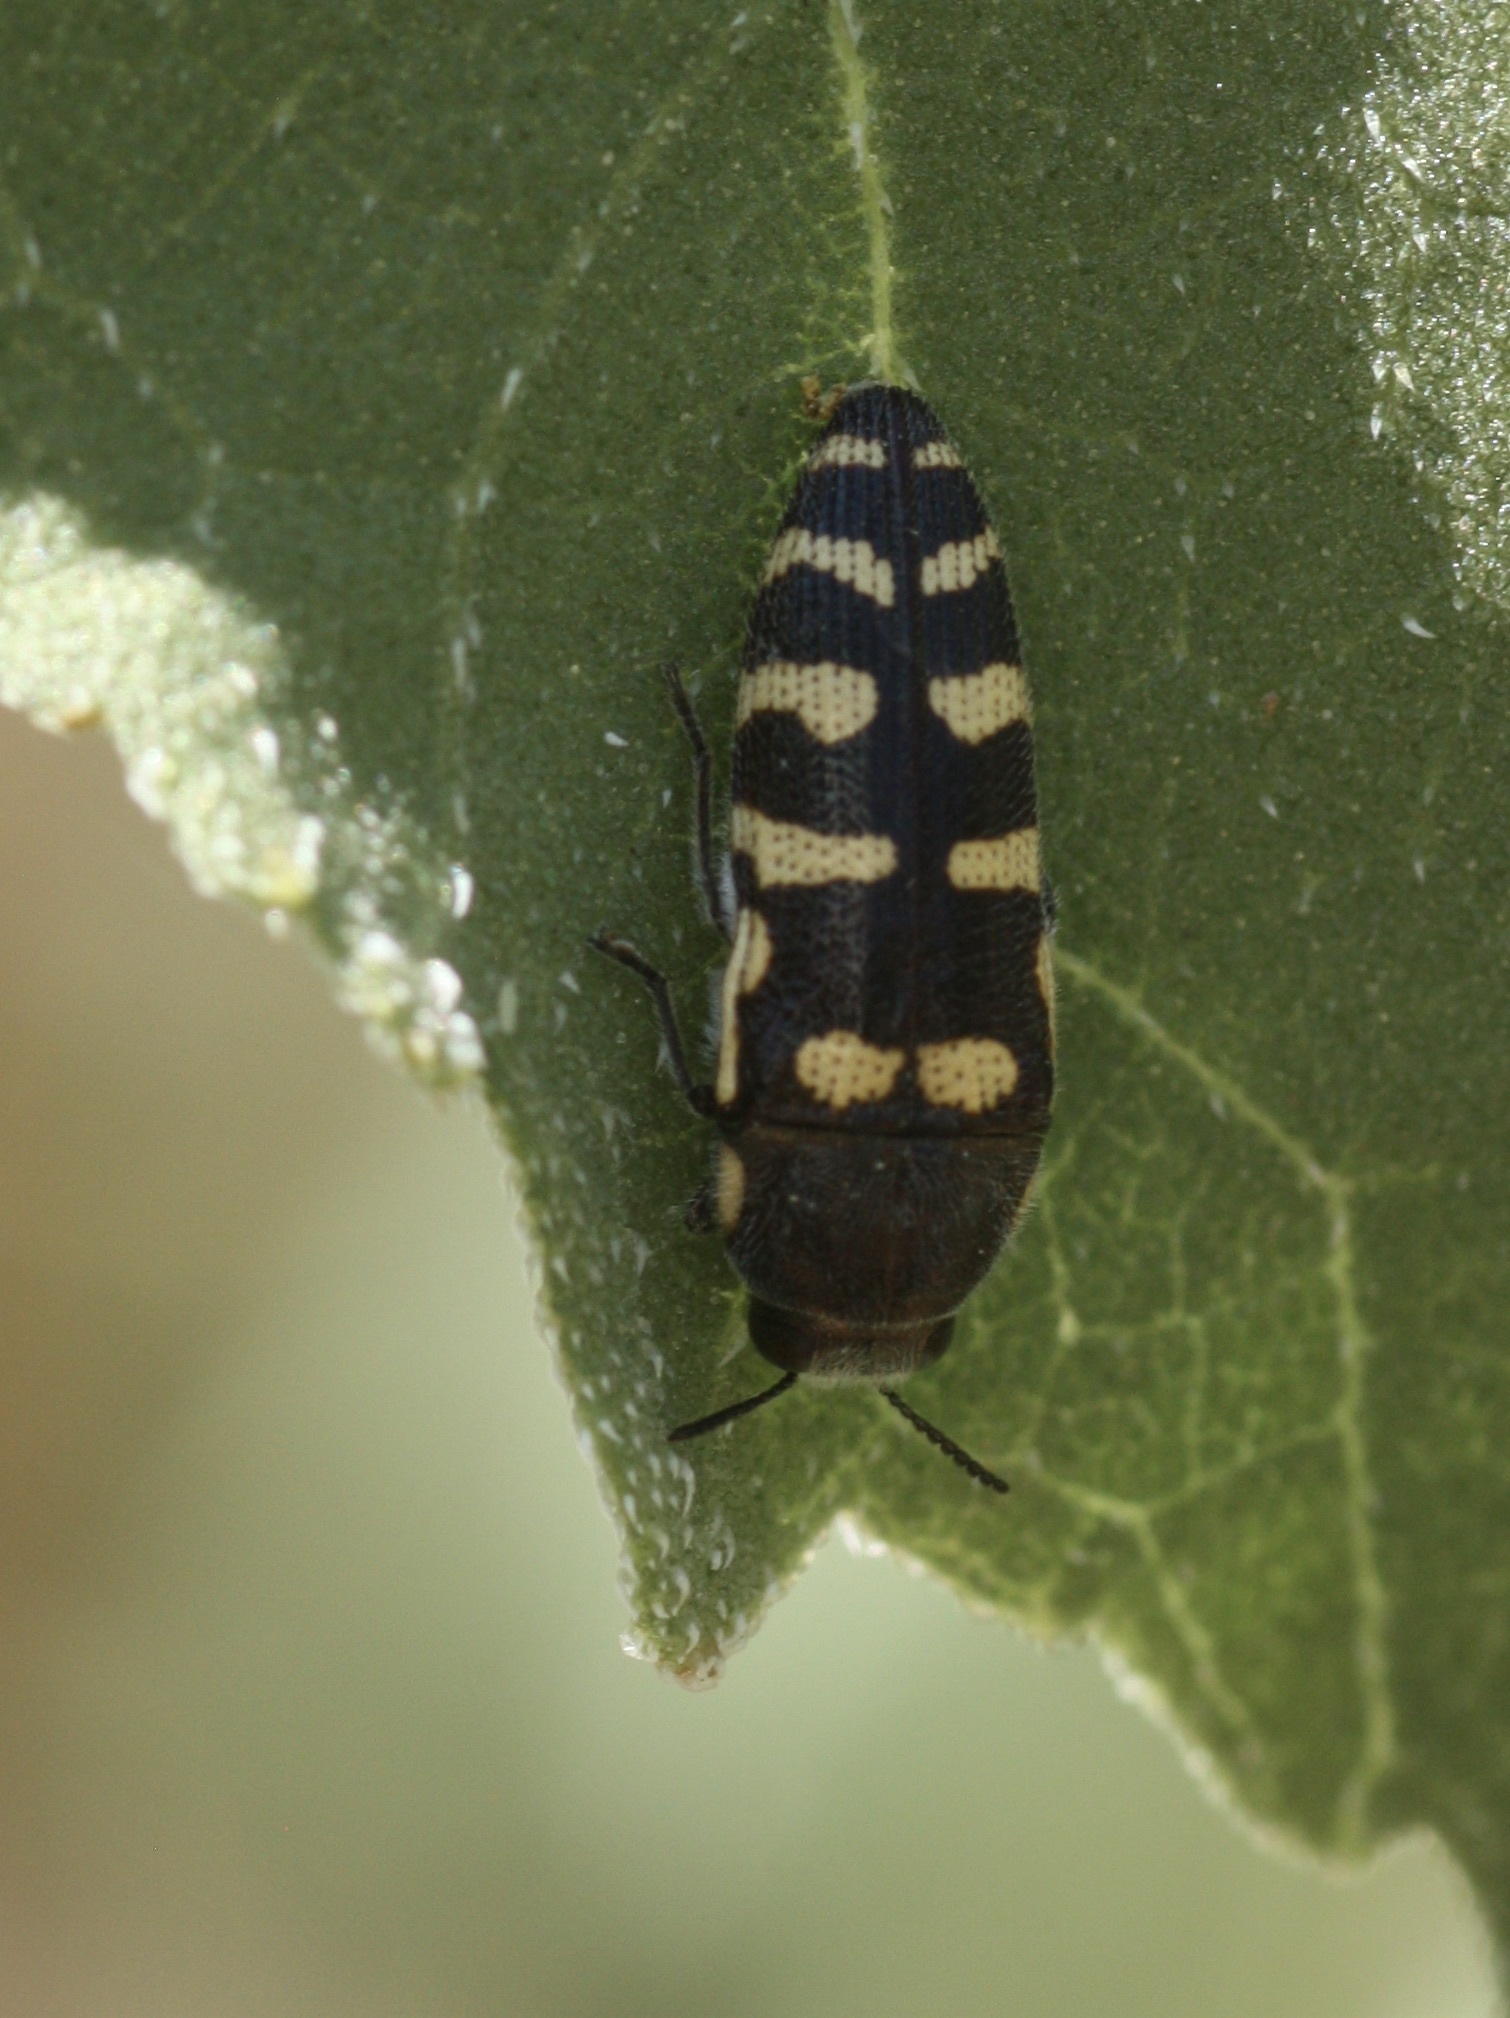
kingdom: Animalia
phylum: Arthropoda
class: Insecta
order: Coleoptera
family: Buprestidae
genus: Acmaeodera
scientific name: Acmaeodera alicia
